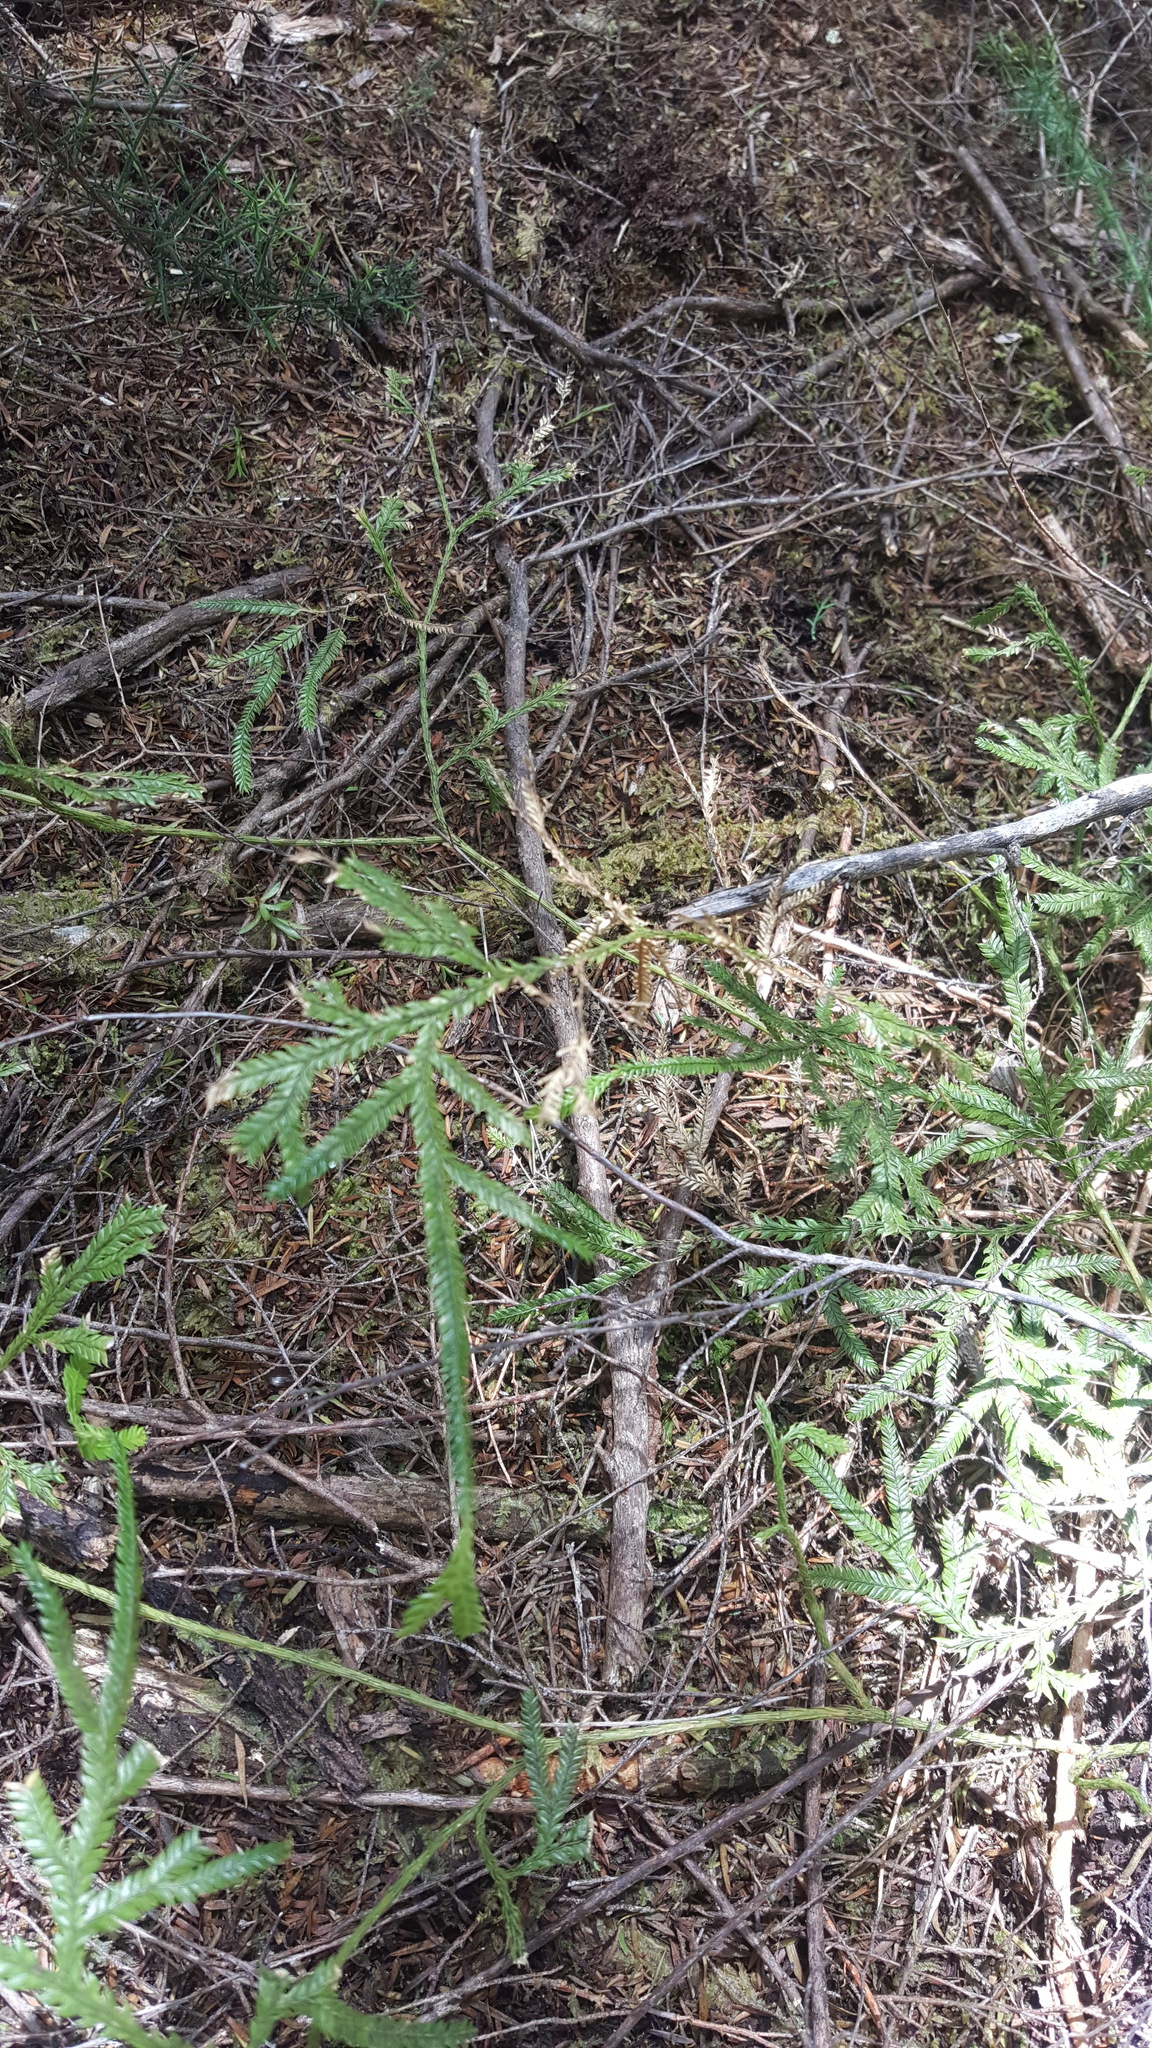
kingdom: Plantae
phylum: Tracheophyta
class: Lycopodiopsida
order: Lycopodiales
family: Lycopodiaceae
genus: Lycopodium
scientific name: Lycopodium volubile
